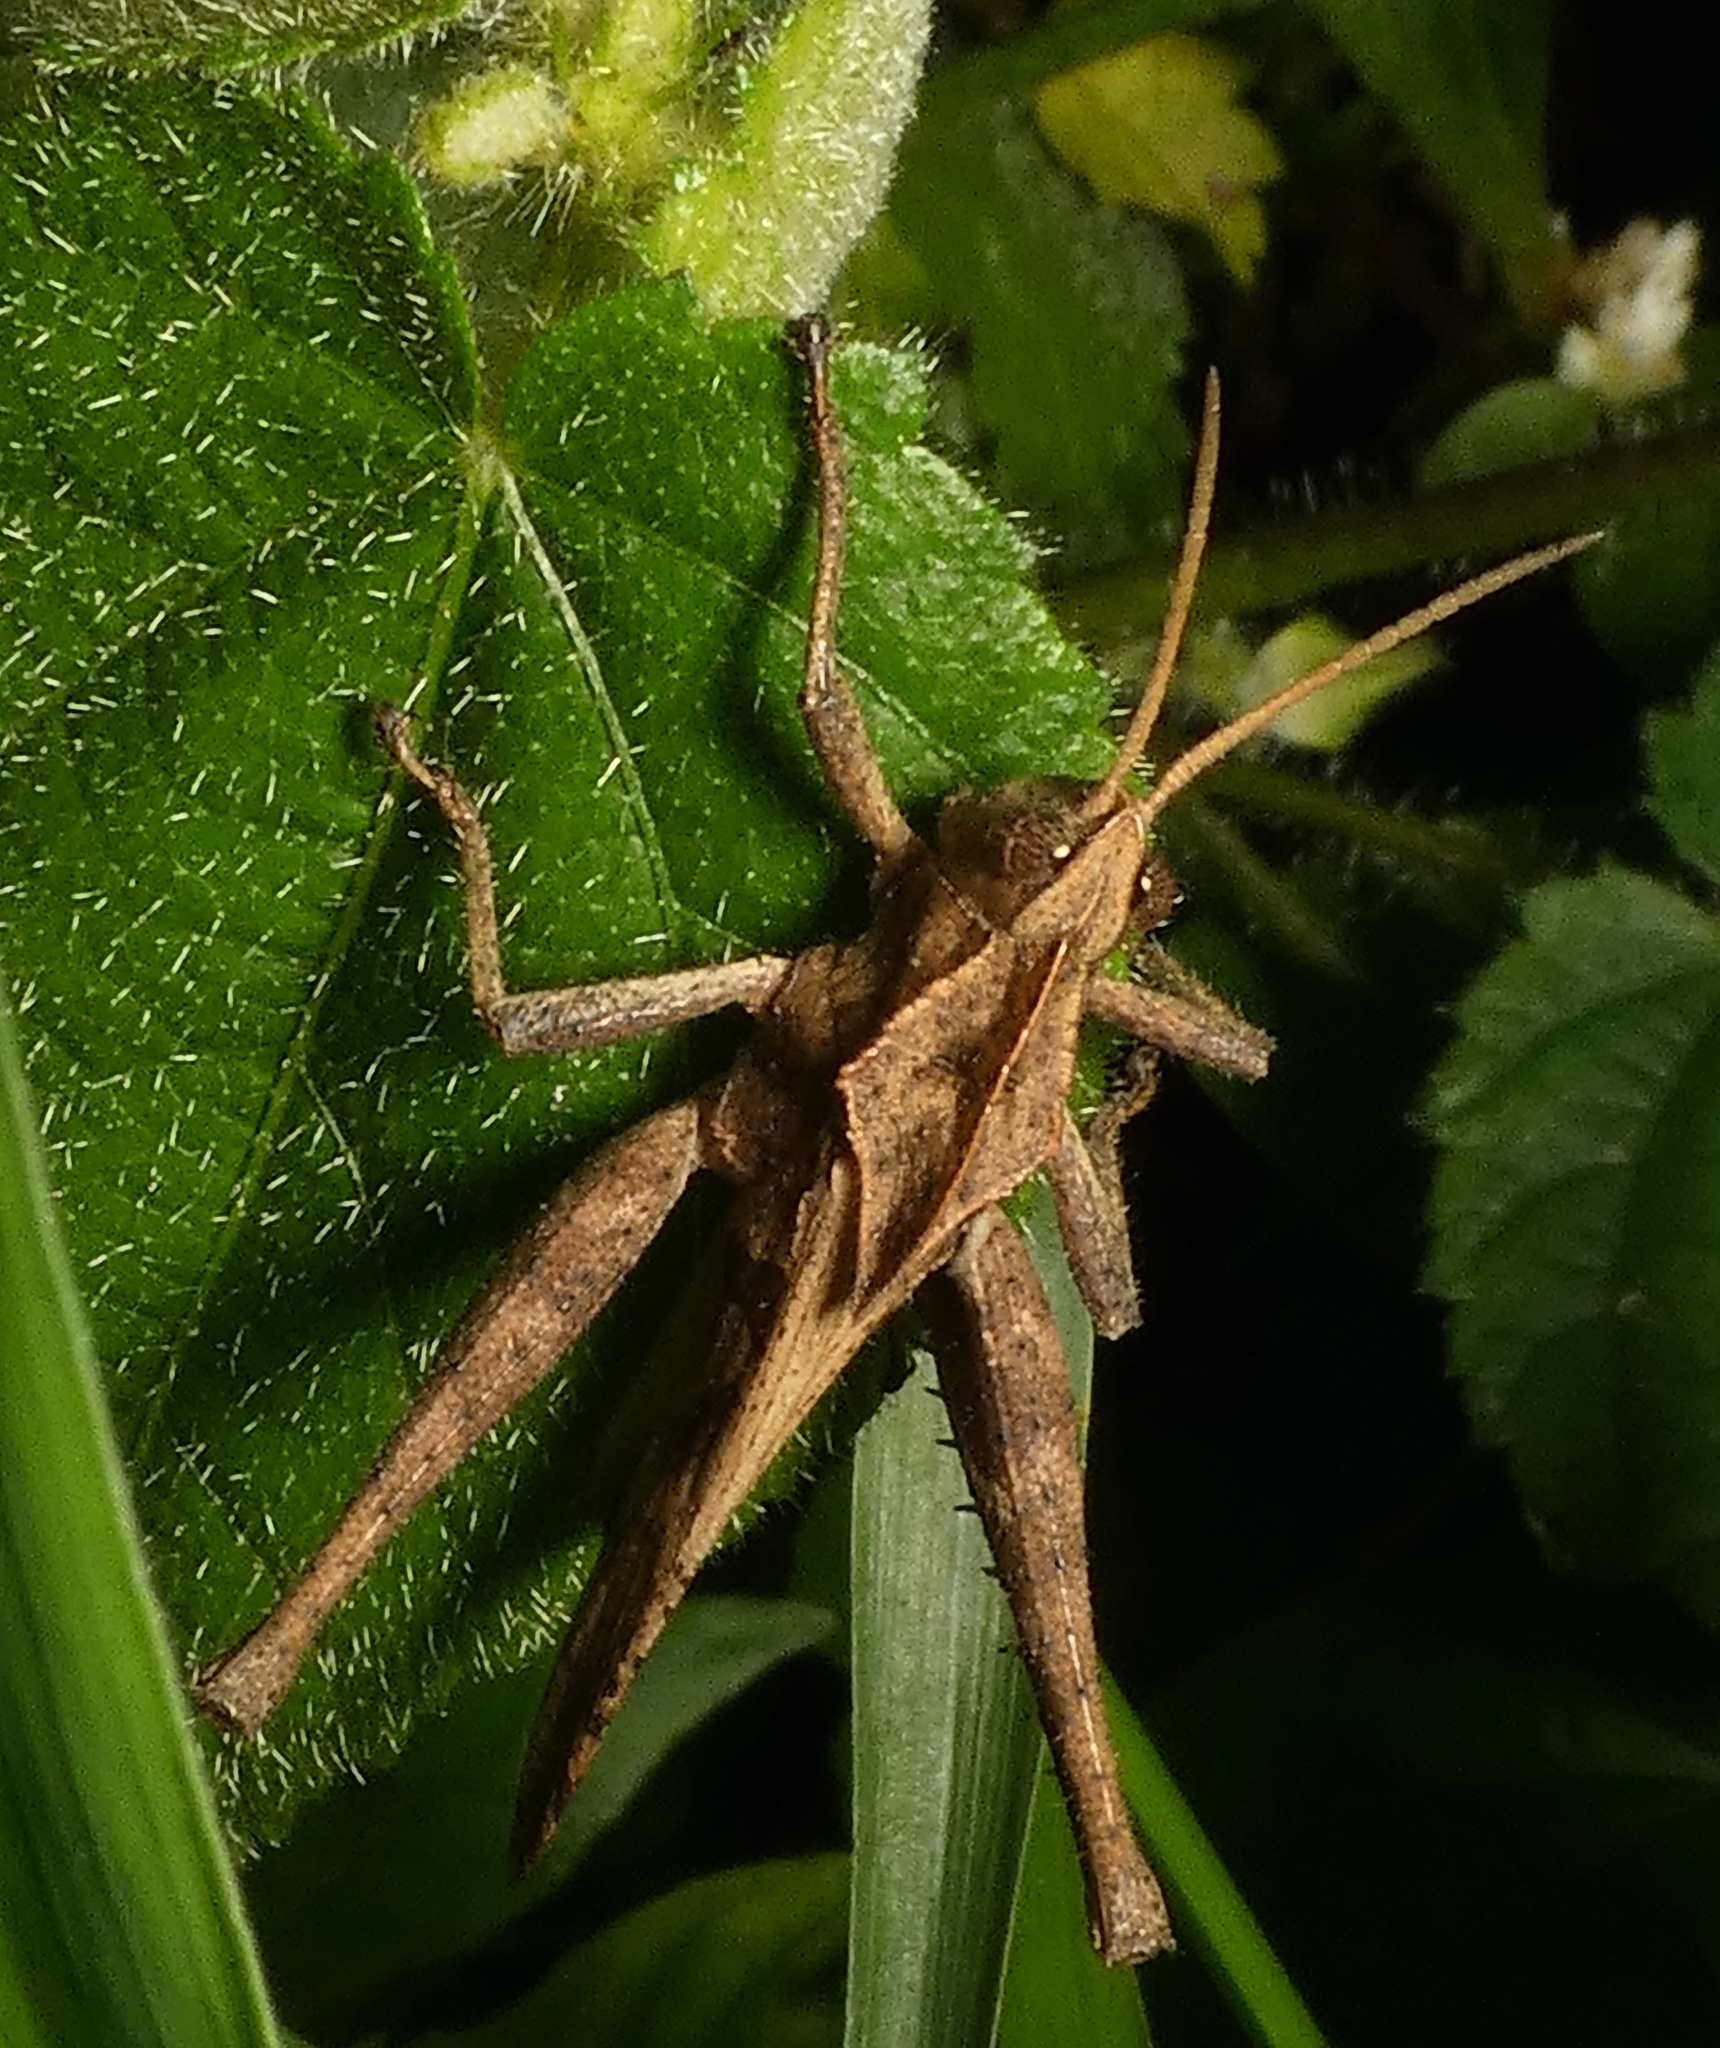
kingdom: Animalia
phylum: Arthropoda
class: Insecta
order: Orthoptera
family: Romaleidae
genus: Xyleus
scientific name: Xyleus discoideus
